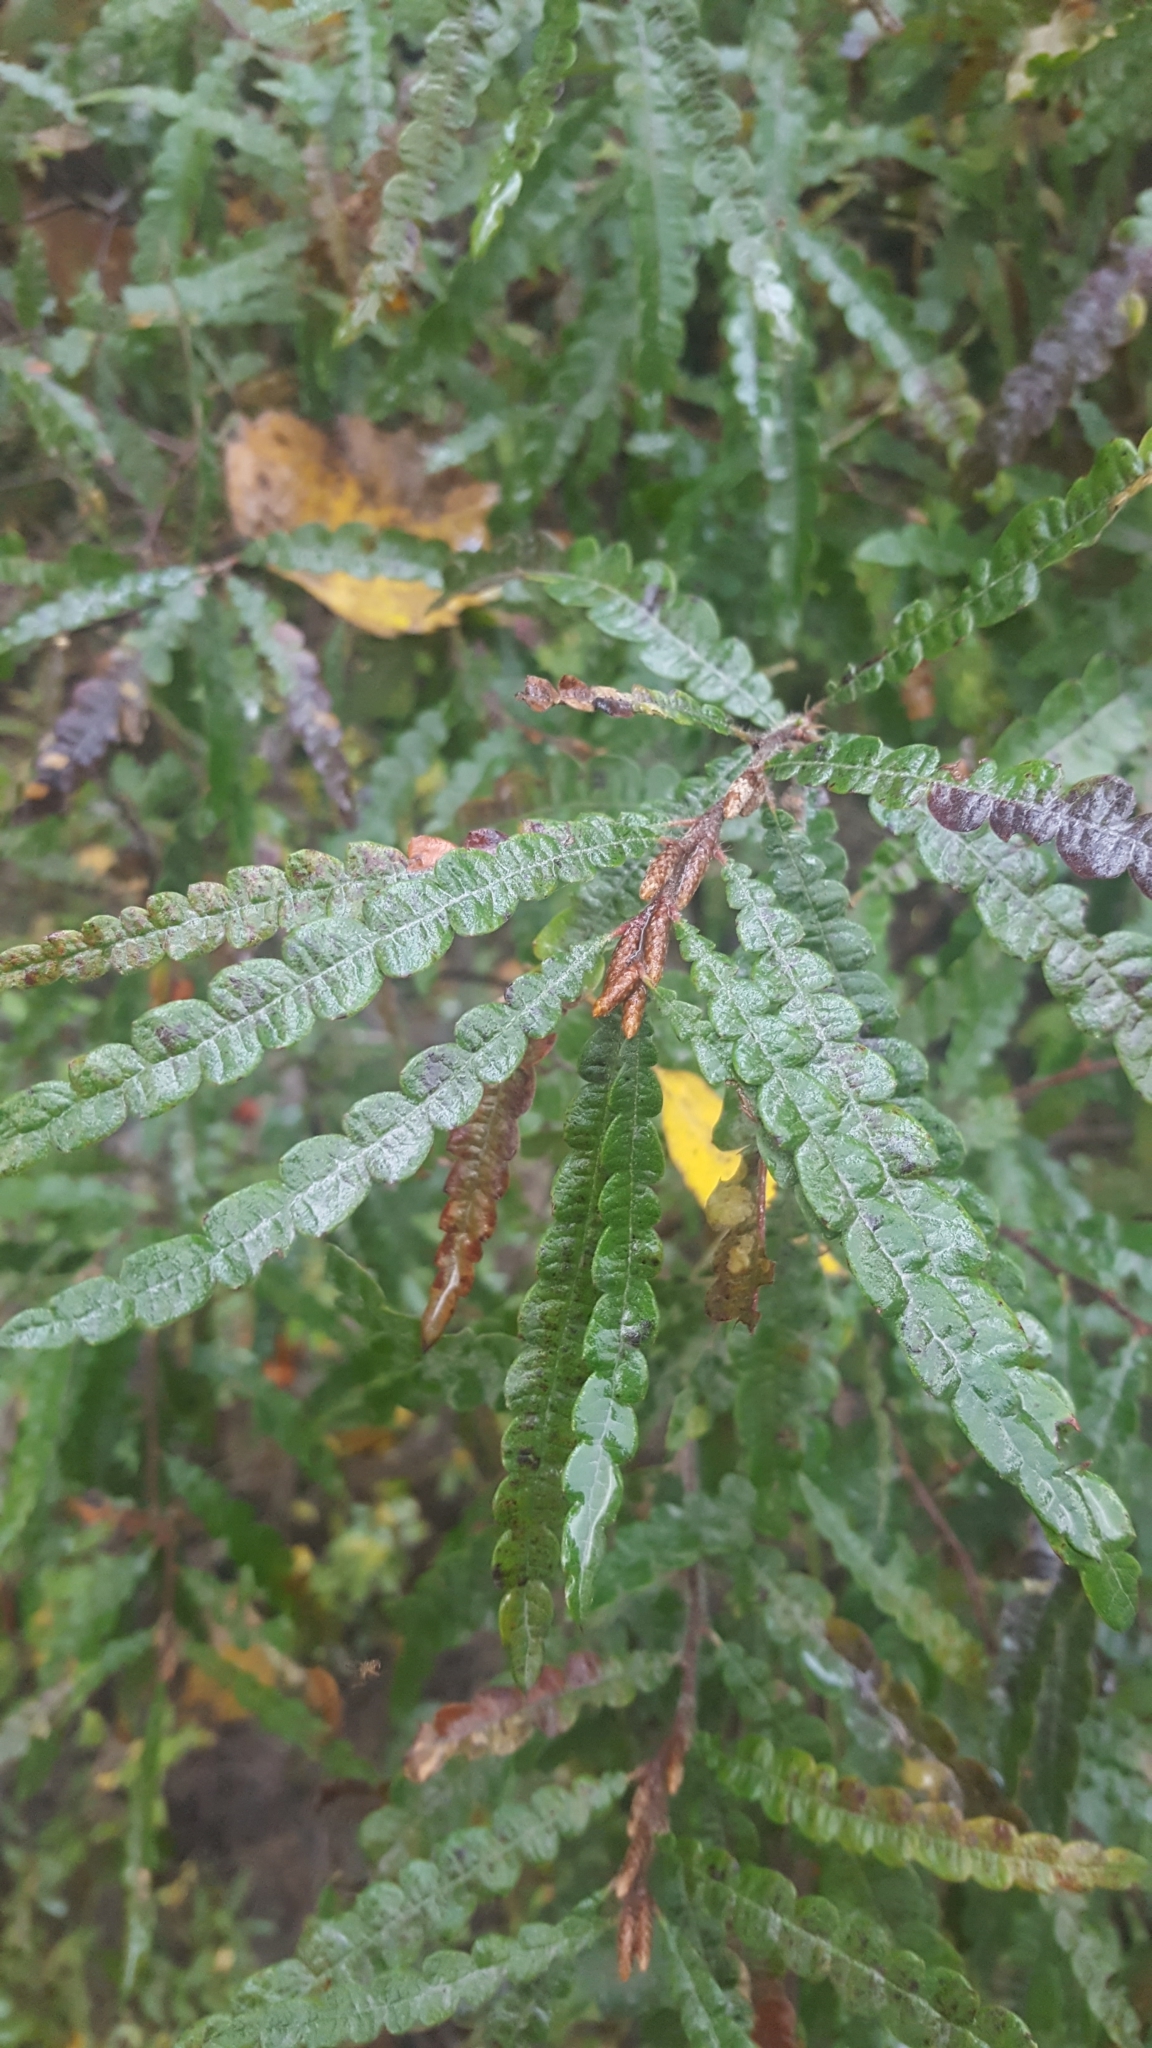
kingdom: Plantae
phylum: Tracheophyta
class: Magnoliopsida
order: Fagales
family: Myricaceae
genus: Comptonia
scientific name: Comptonia peregrina
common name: Sweet-fern
